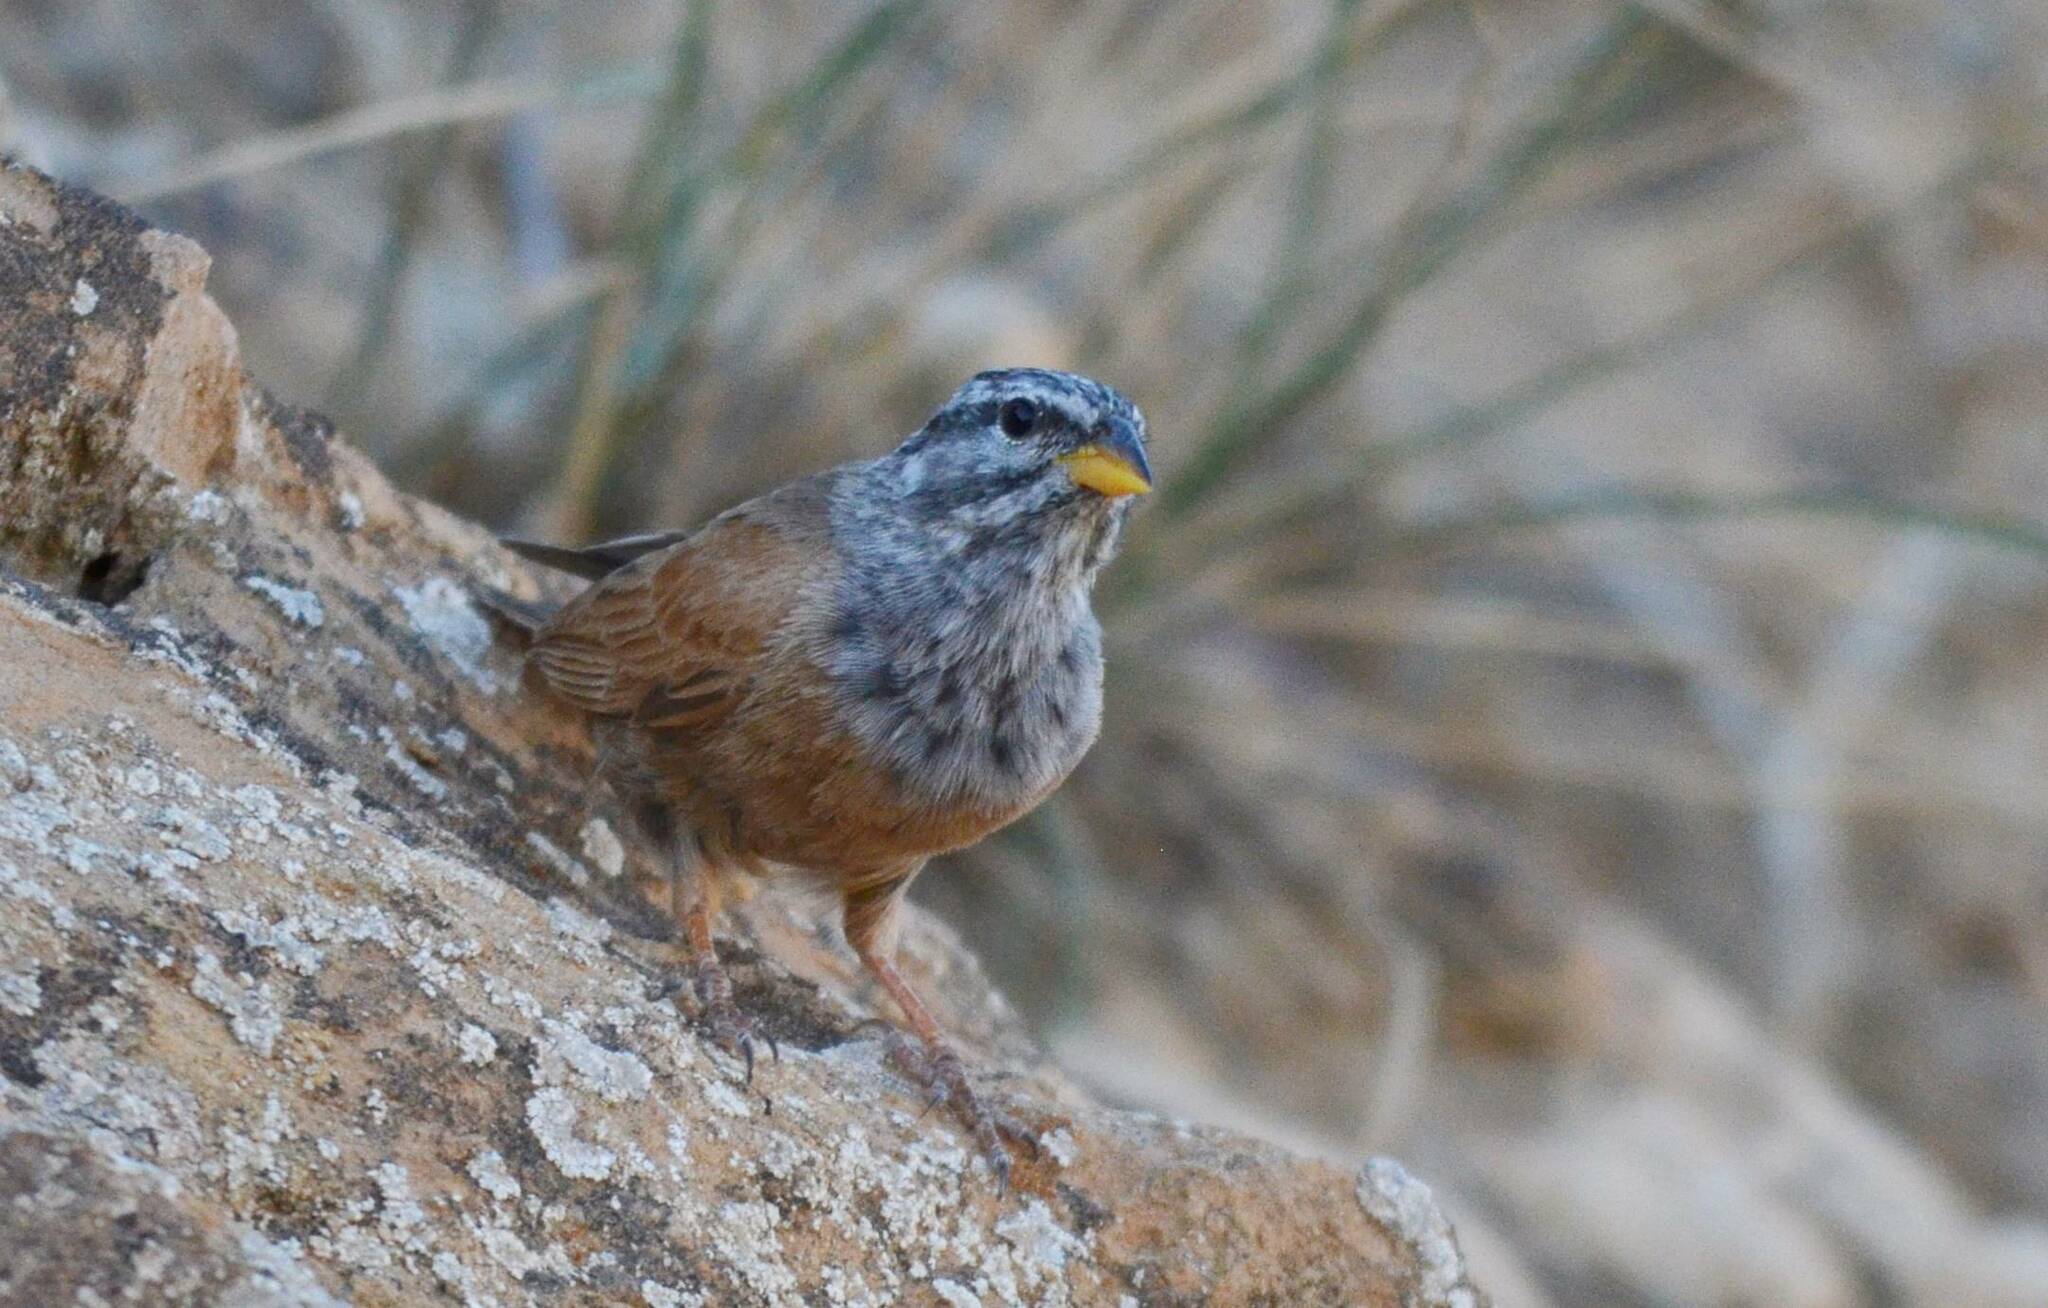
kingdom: Animalia
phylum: Chordata
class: Aves
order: Passeriformes
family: Emberizidae
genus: Emberiza
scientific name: Emberiza sahari
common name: House bunting
